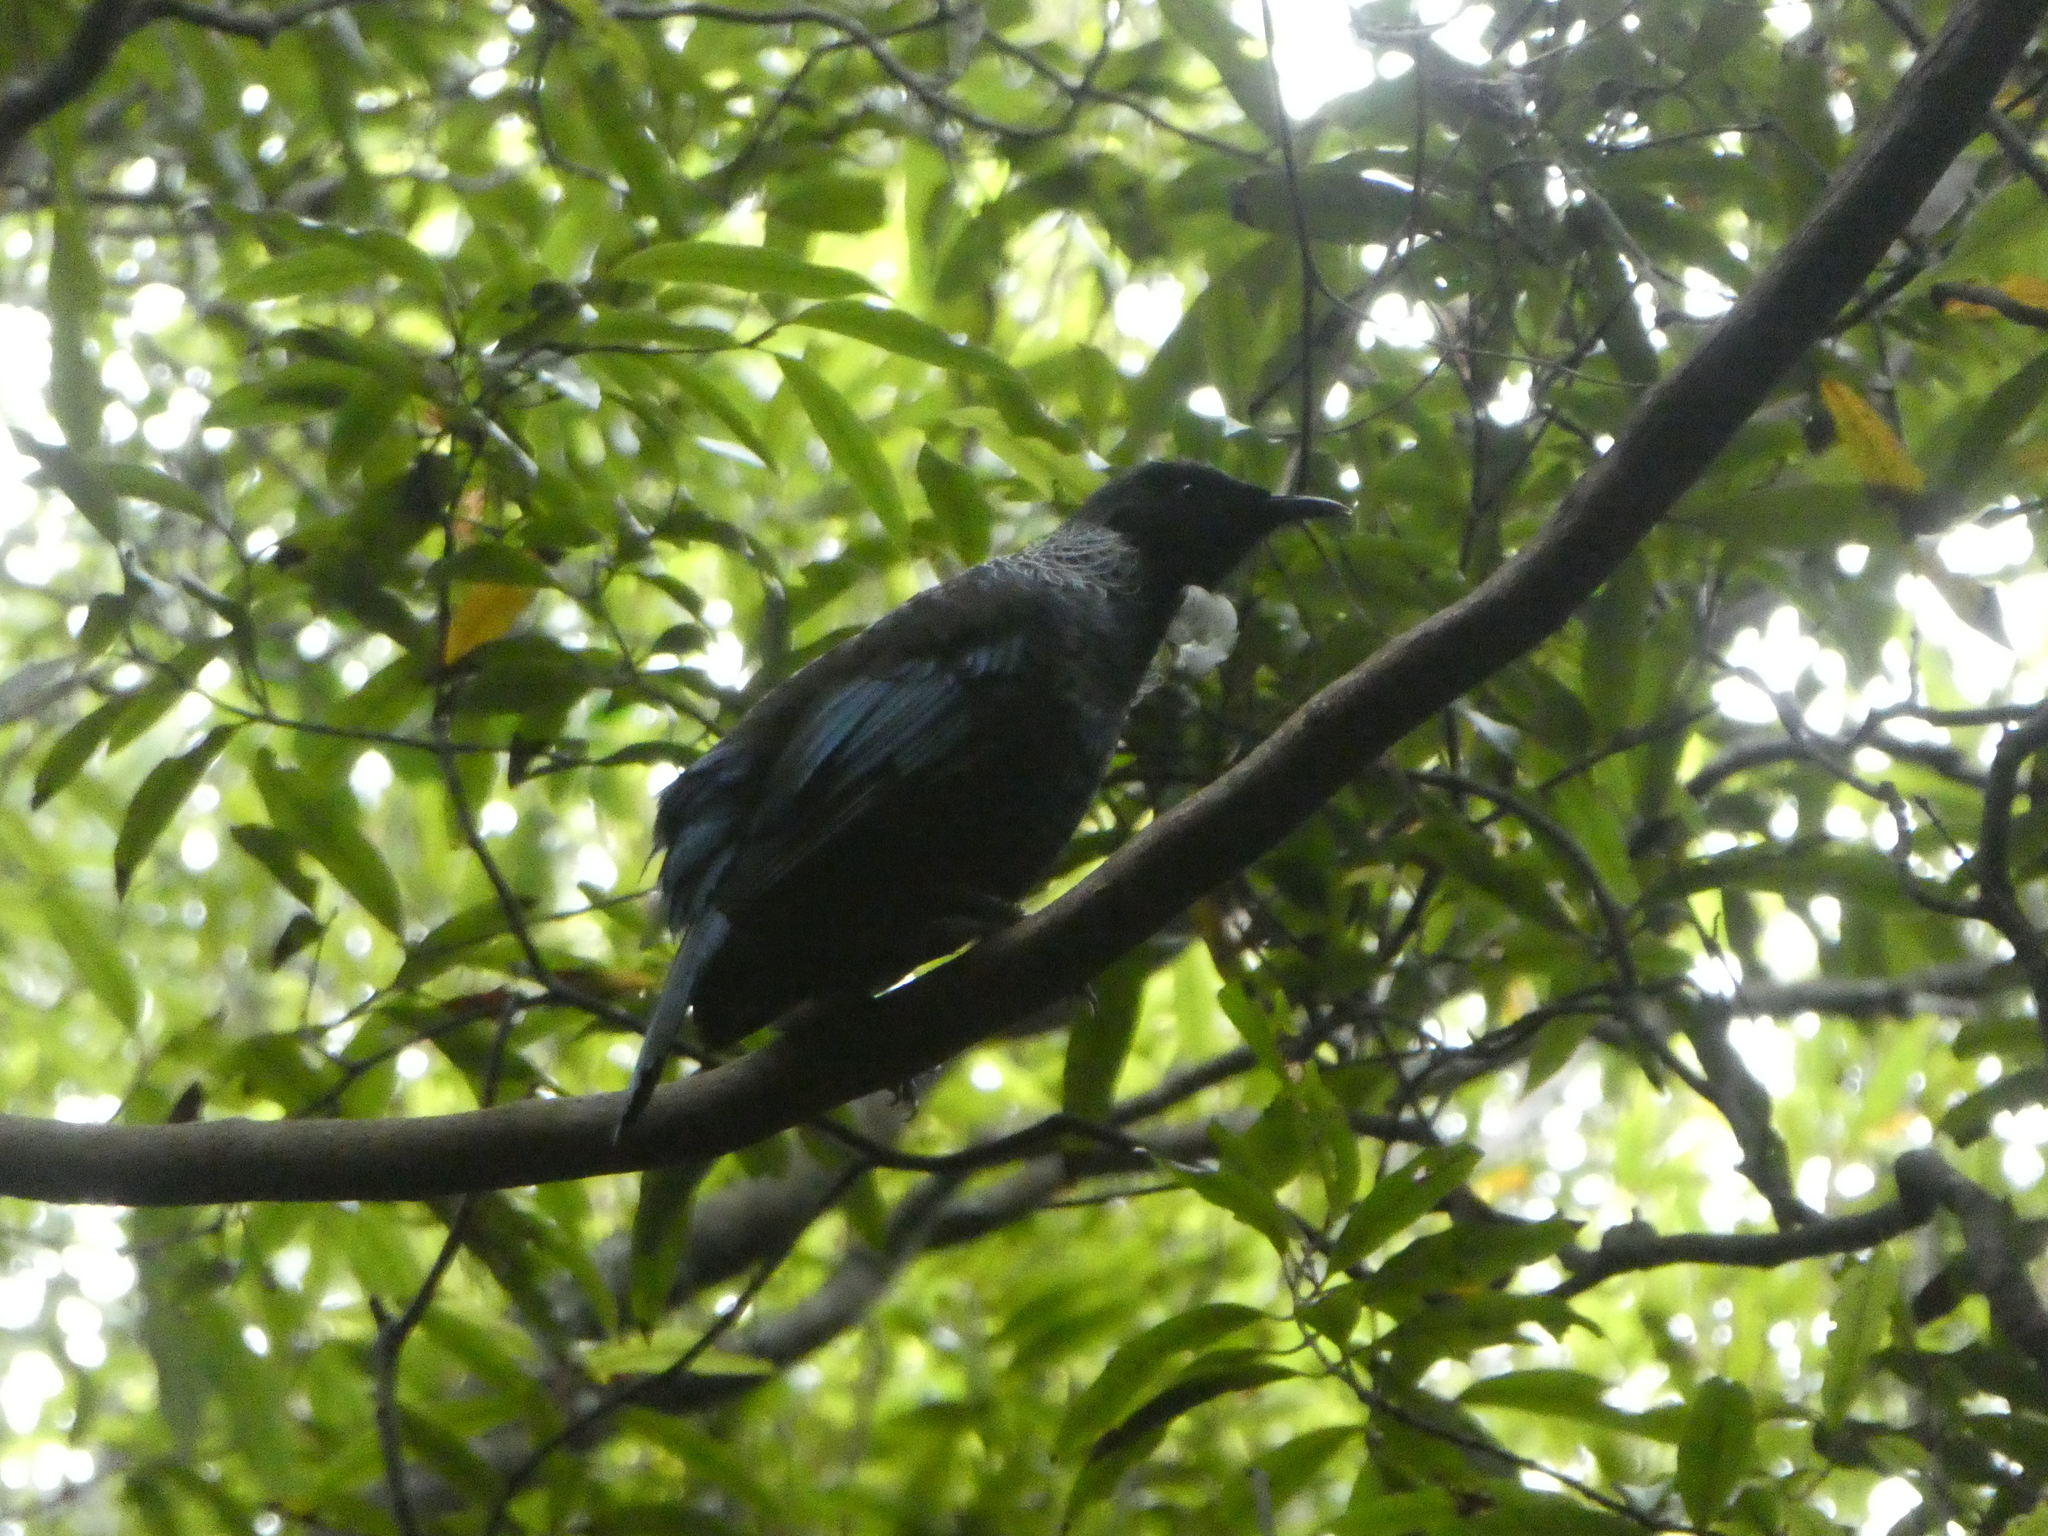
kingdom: Animalia
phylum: Chordata
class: Aves
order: Passeriformes
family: Meliphagidae
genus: Prosthemadera
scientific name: Prosthemadera novaeseelandiae
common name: Tui
